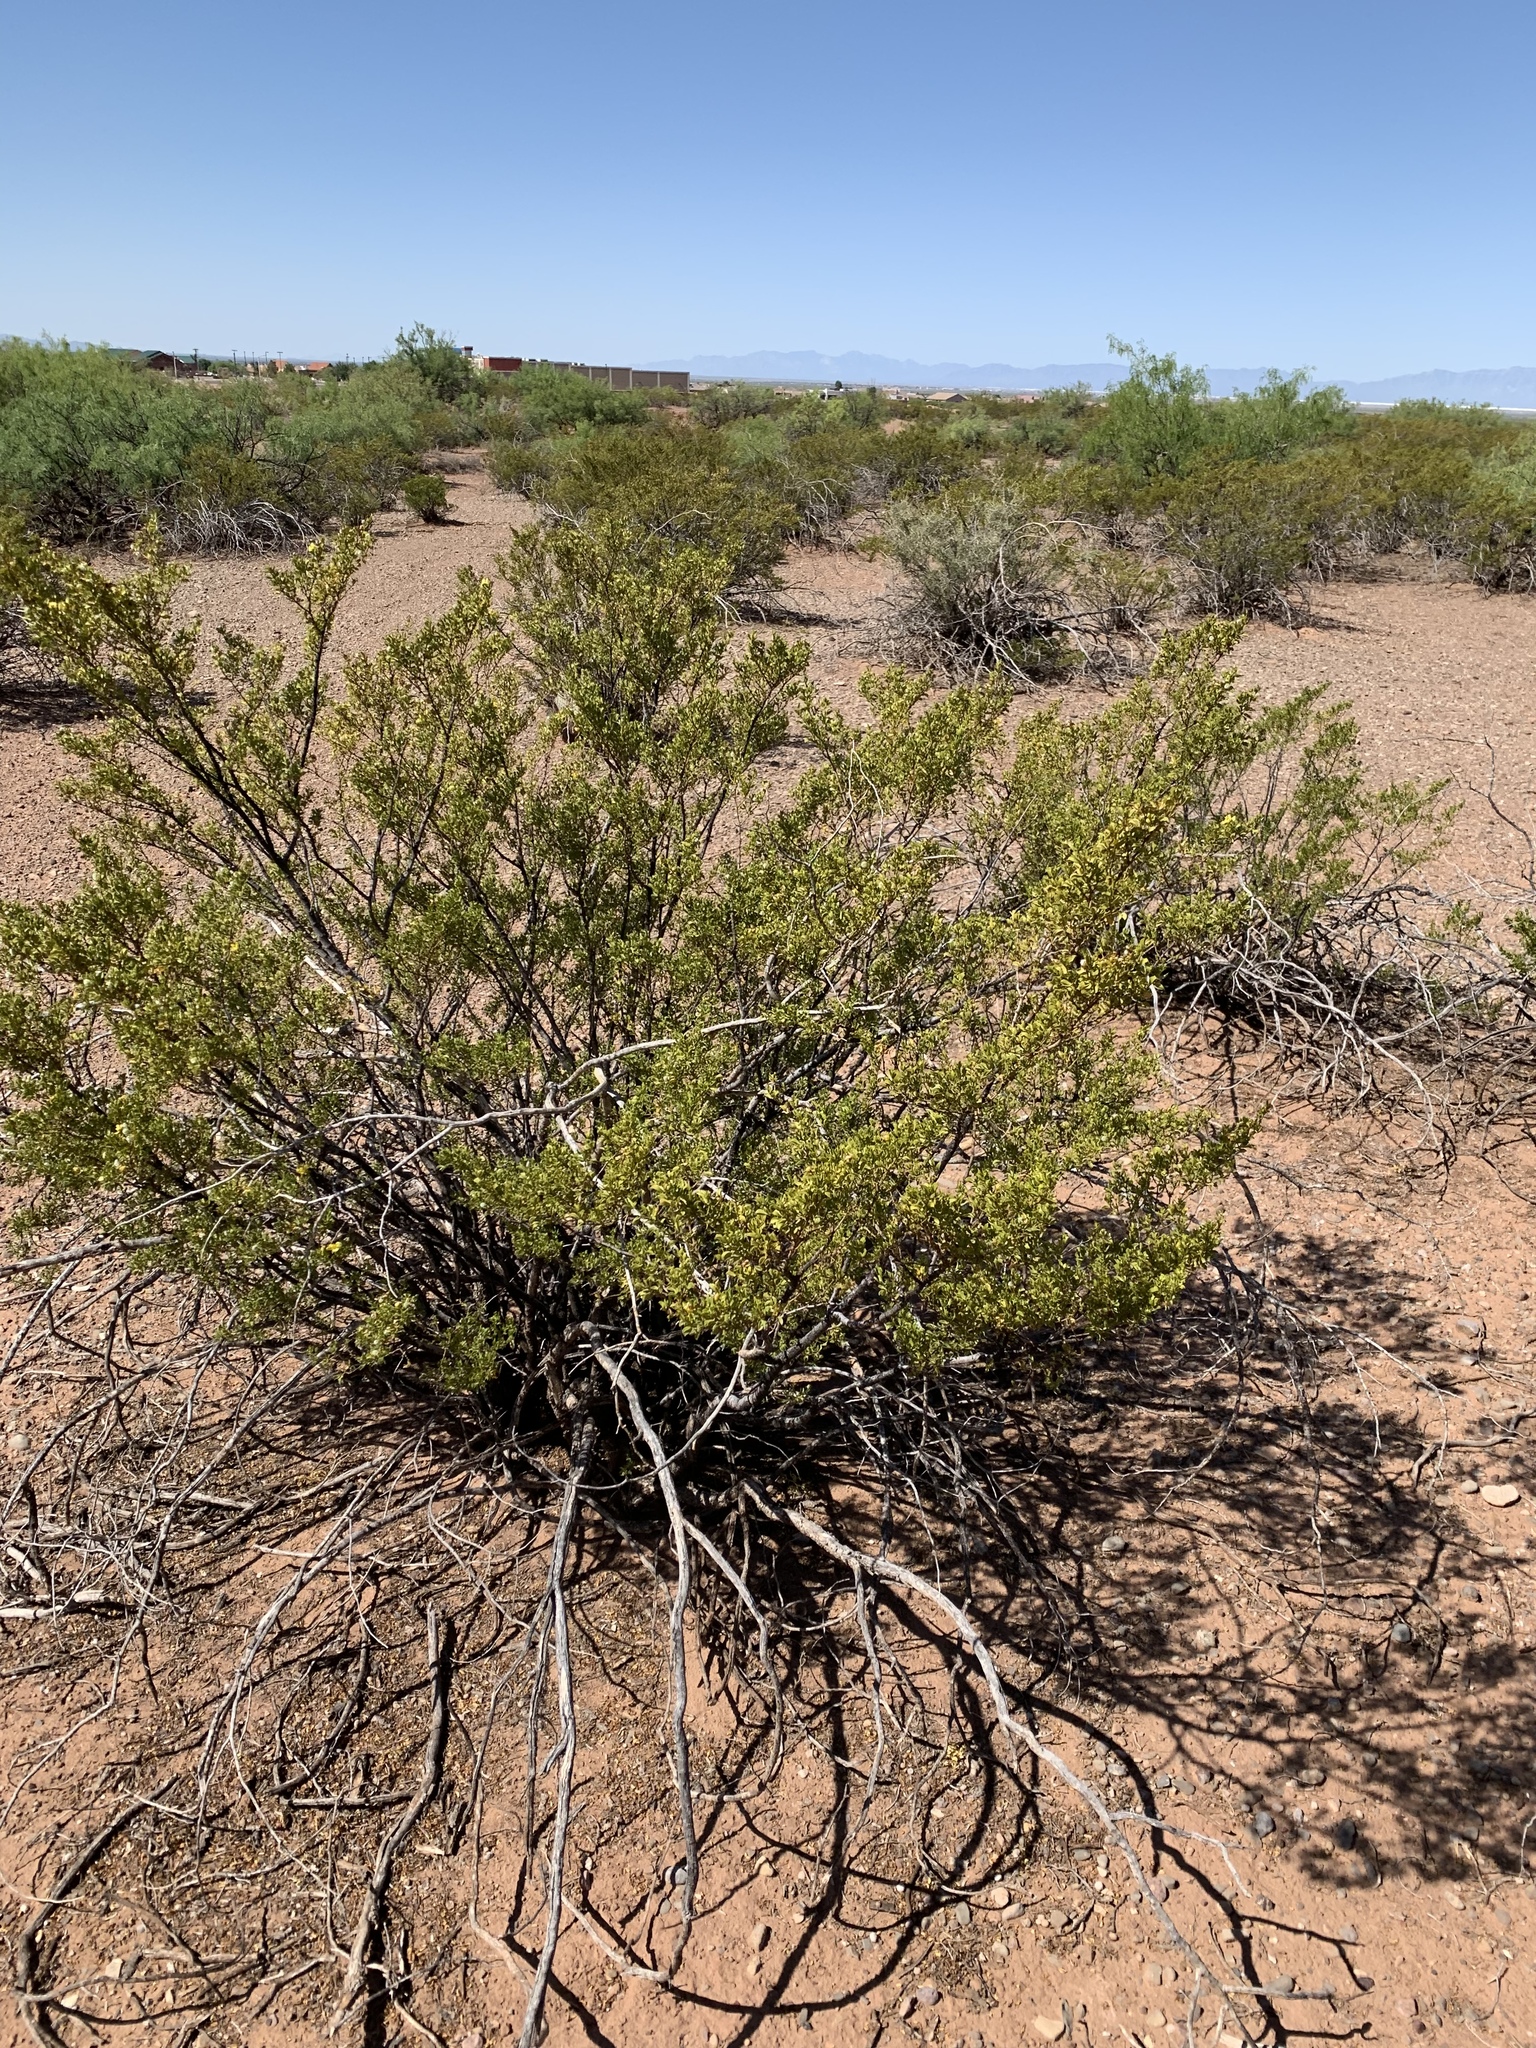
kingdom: Plantae
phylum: Tracheophyta
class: Magnoliopsida
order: Zygophyllales
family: Zygophyllaceae
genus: Larrea
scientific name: Larrea tridentata
